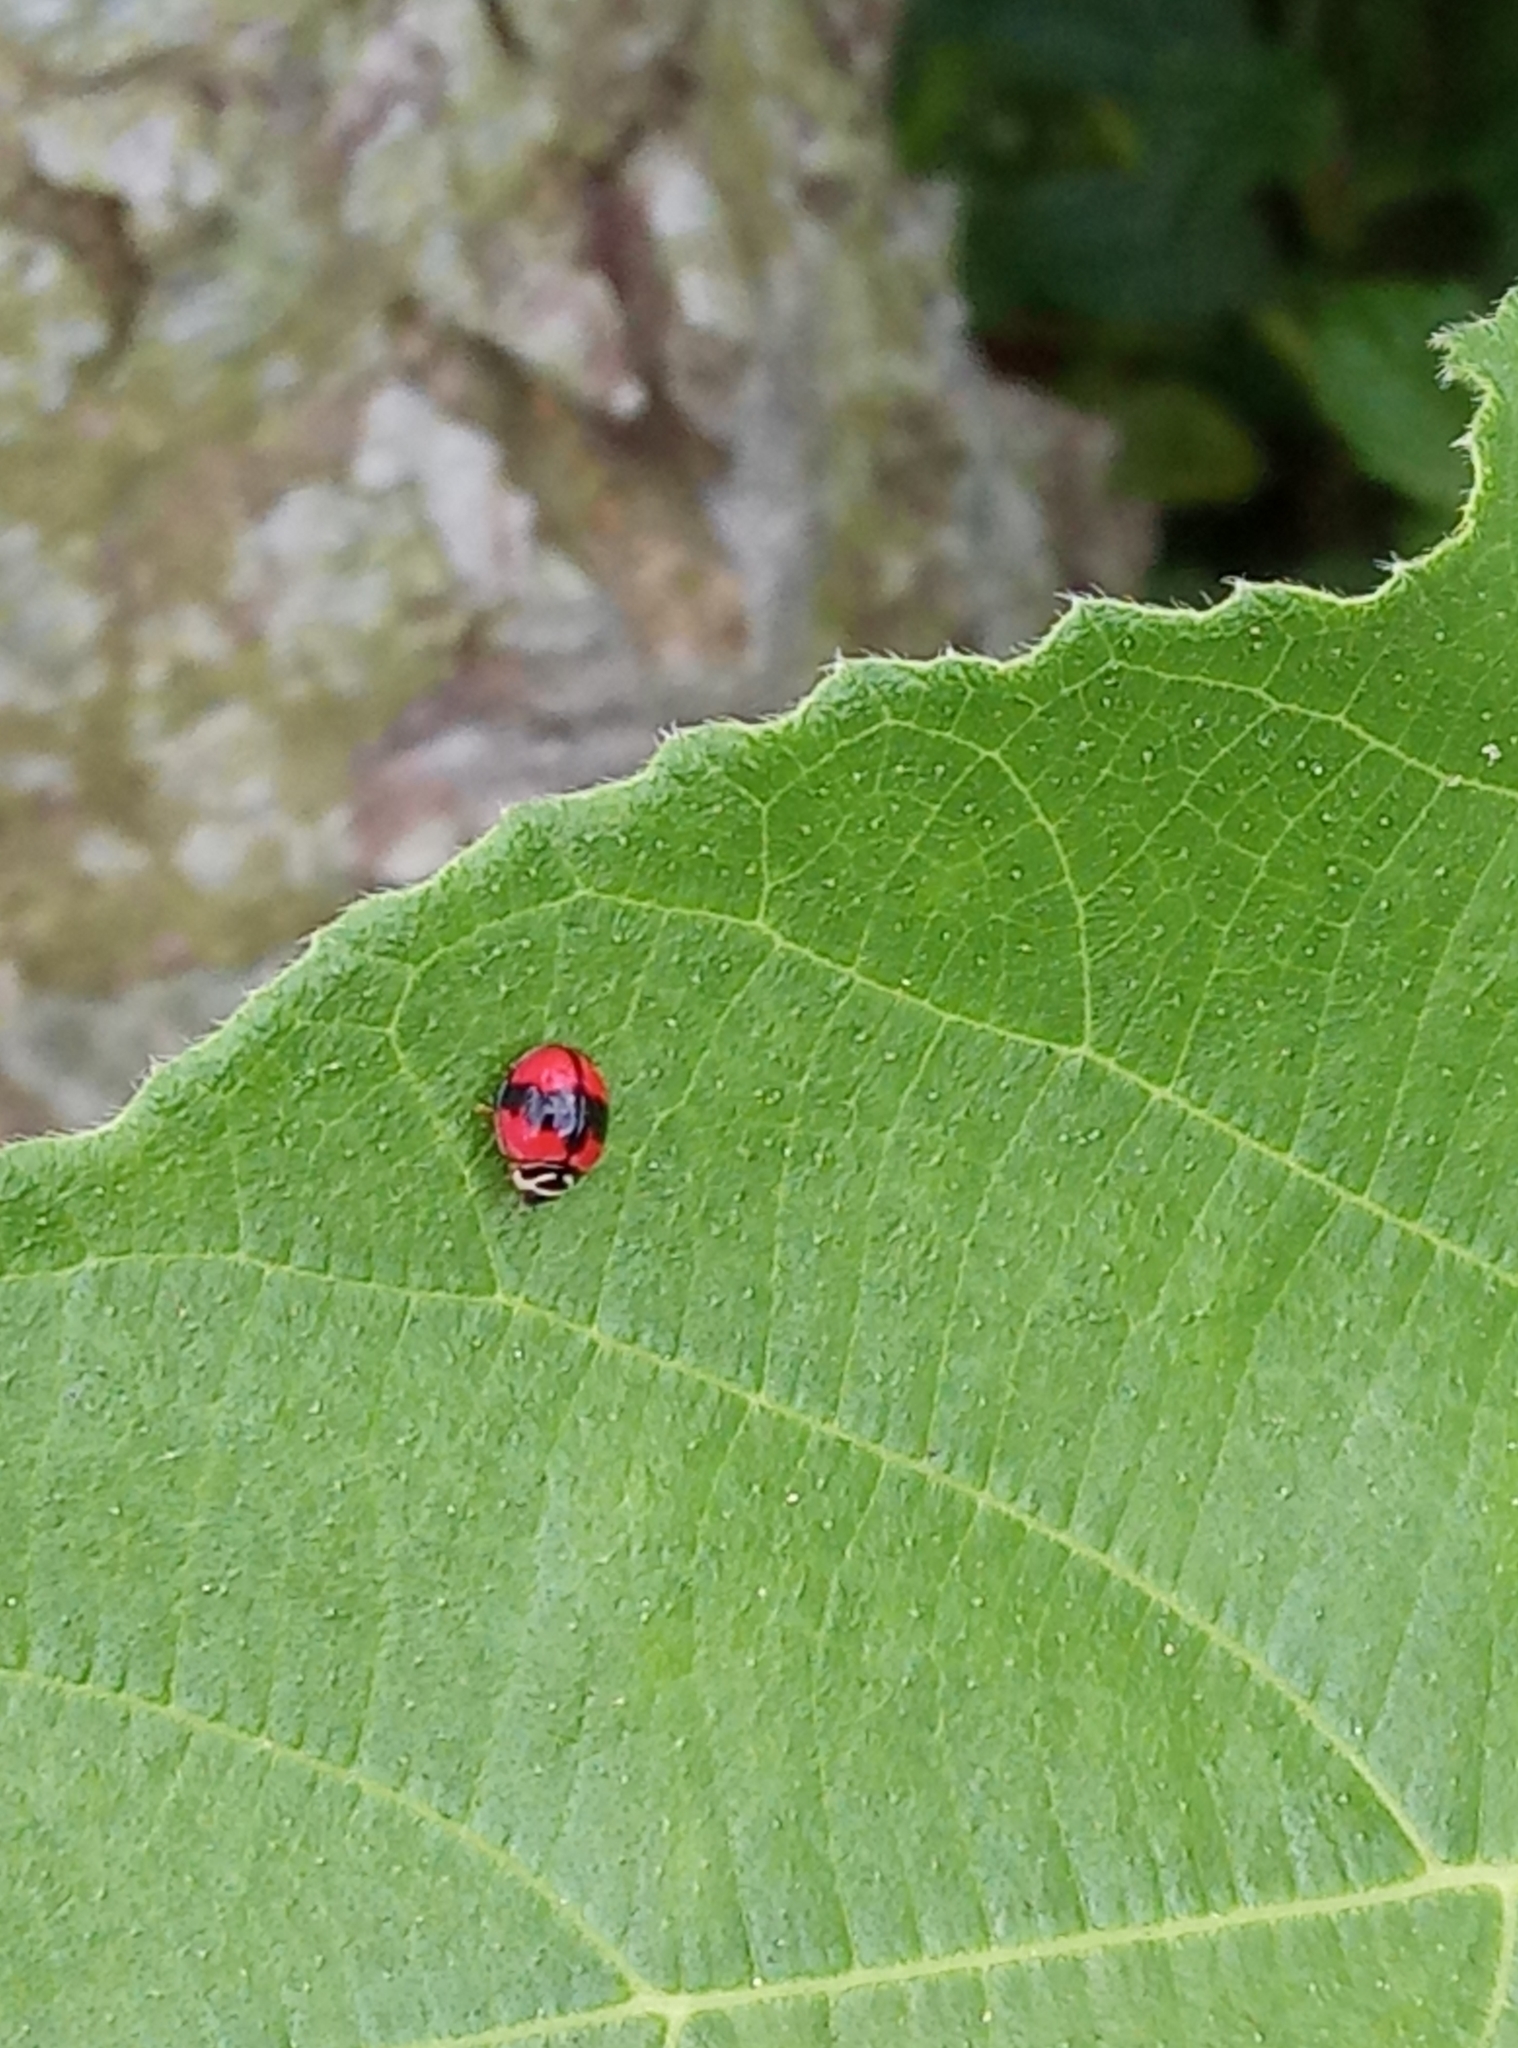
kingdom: Animalia
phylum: Arthropoda
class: Insecta
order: Coleoptera
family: Coccinellidae
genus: Cheilomenes
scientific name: Cheilomenes sexmaculata
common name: Ladybird beetle
